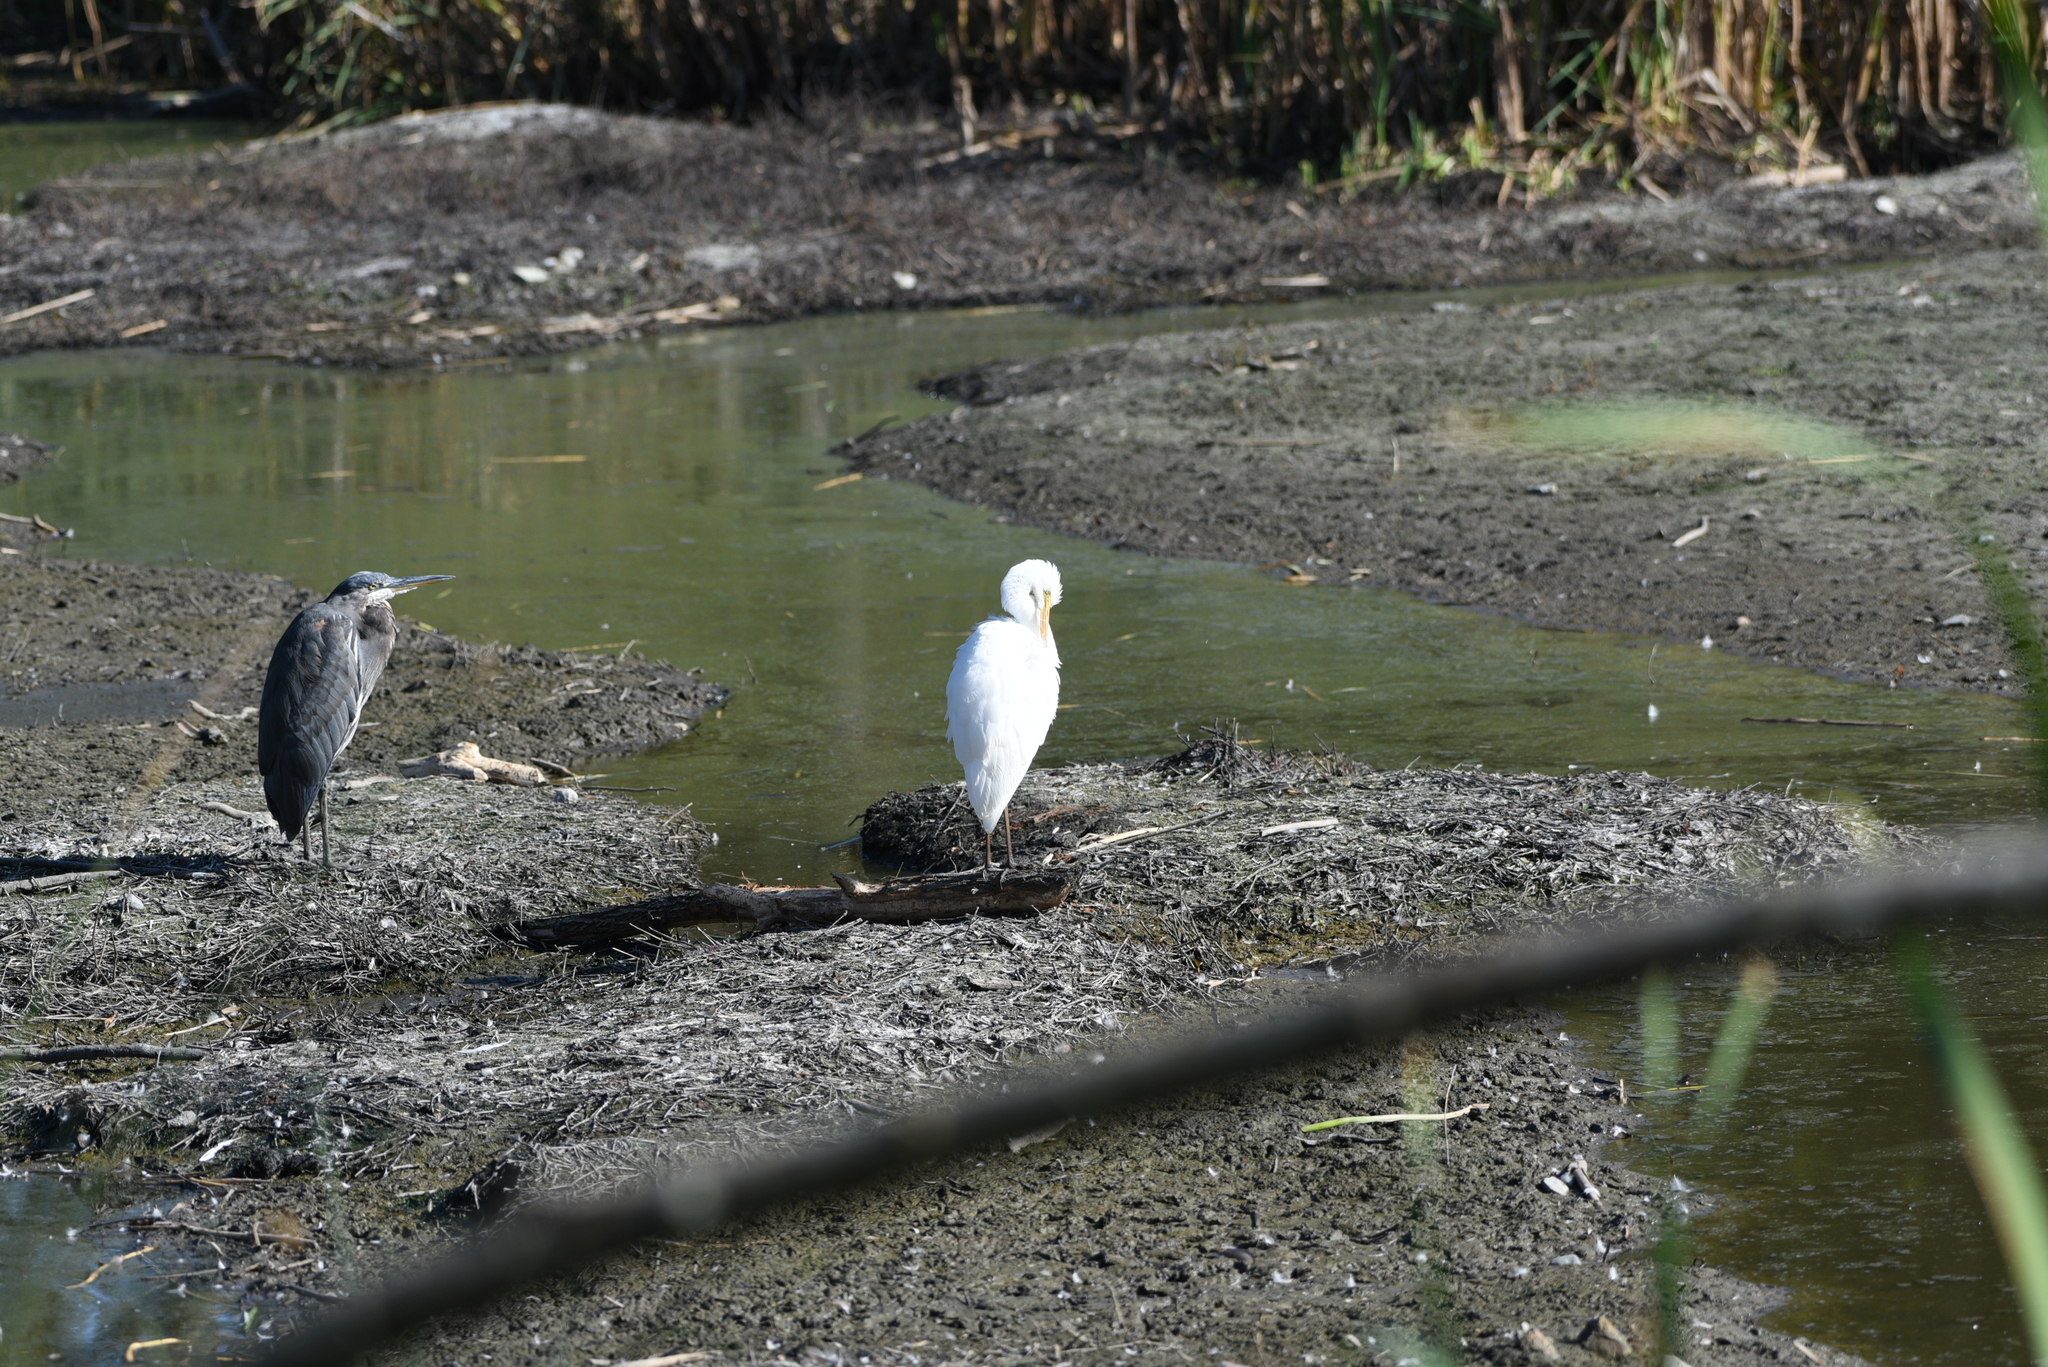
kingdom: Animalia
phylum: Chordata
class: Aves
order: Pelecaniformes
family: Ardeidae
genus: Ardea
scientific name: Ardea alba
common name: Great egret
